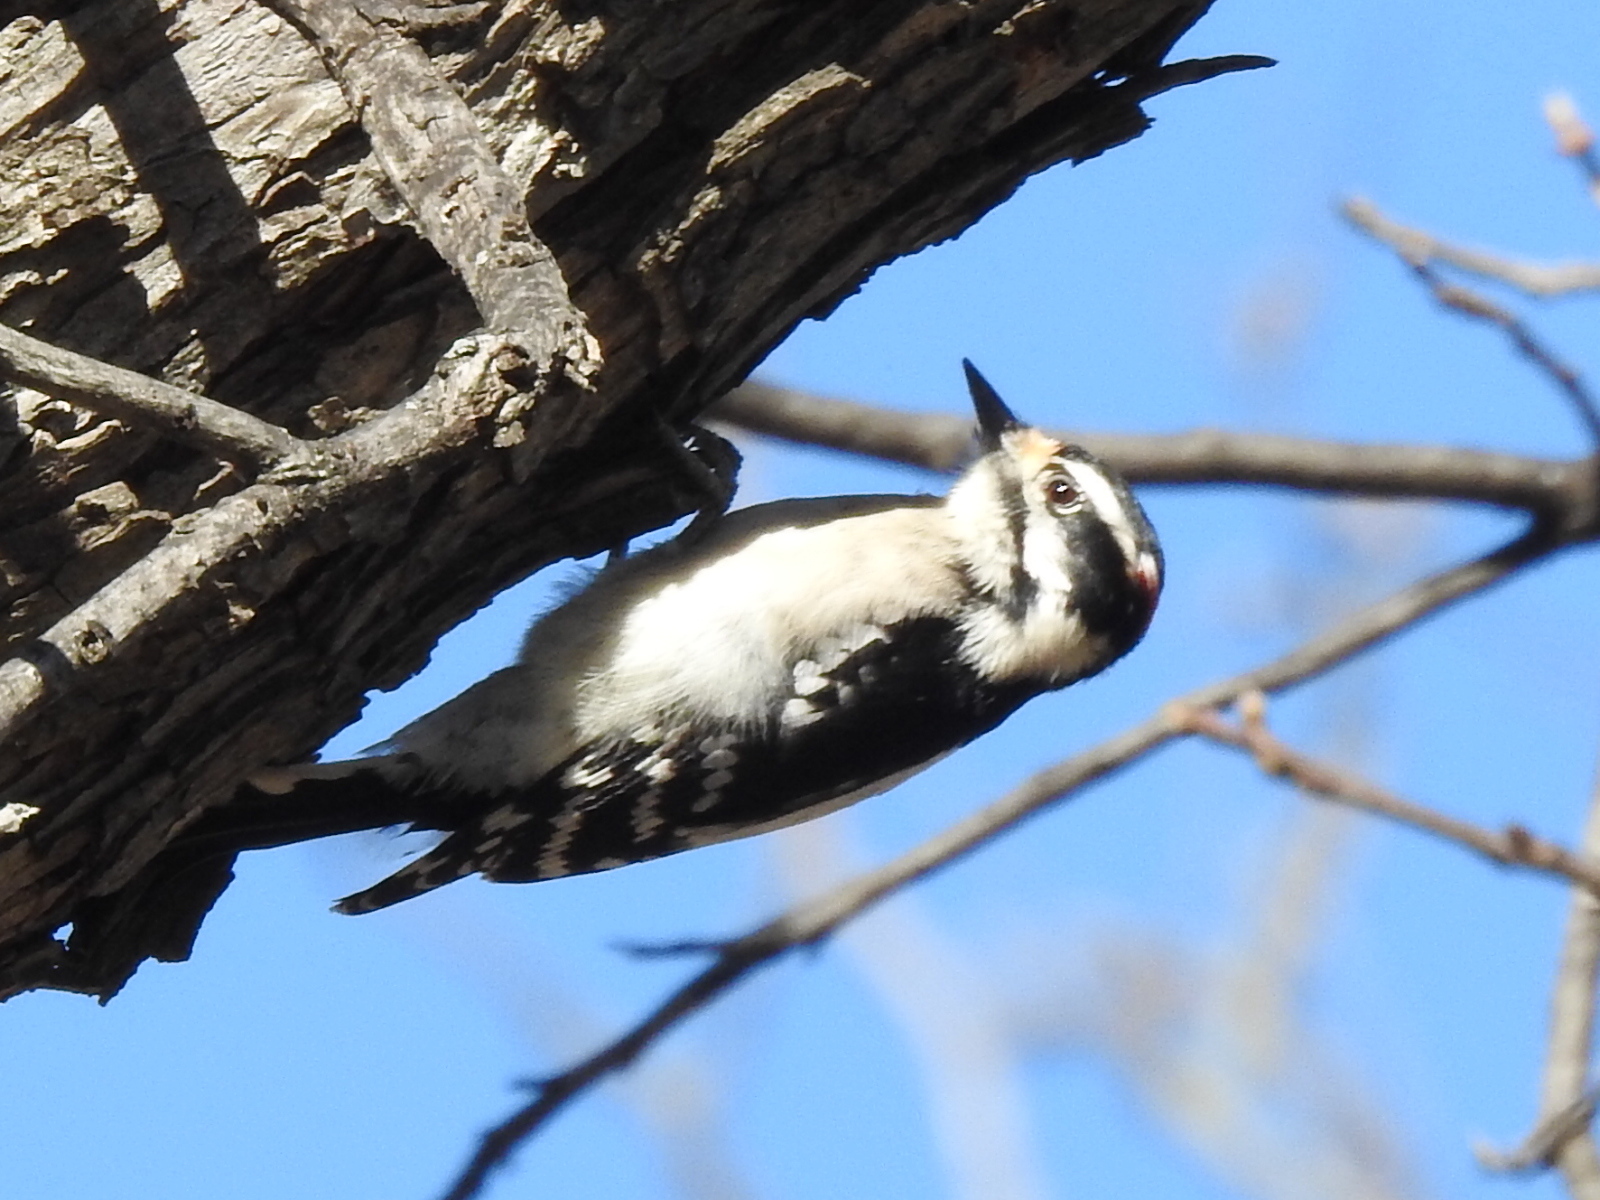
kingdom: Animalia
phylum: Chordata
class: Aves
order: Piciformes
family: Picidae
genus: Dryobates
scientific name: Dryobates pubescens
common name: Downy woodpecker
